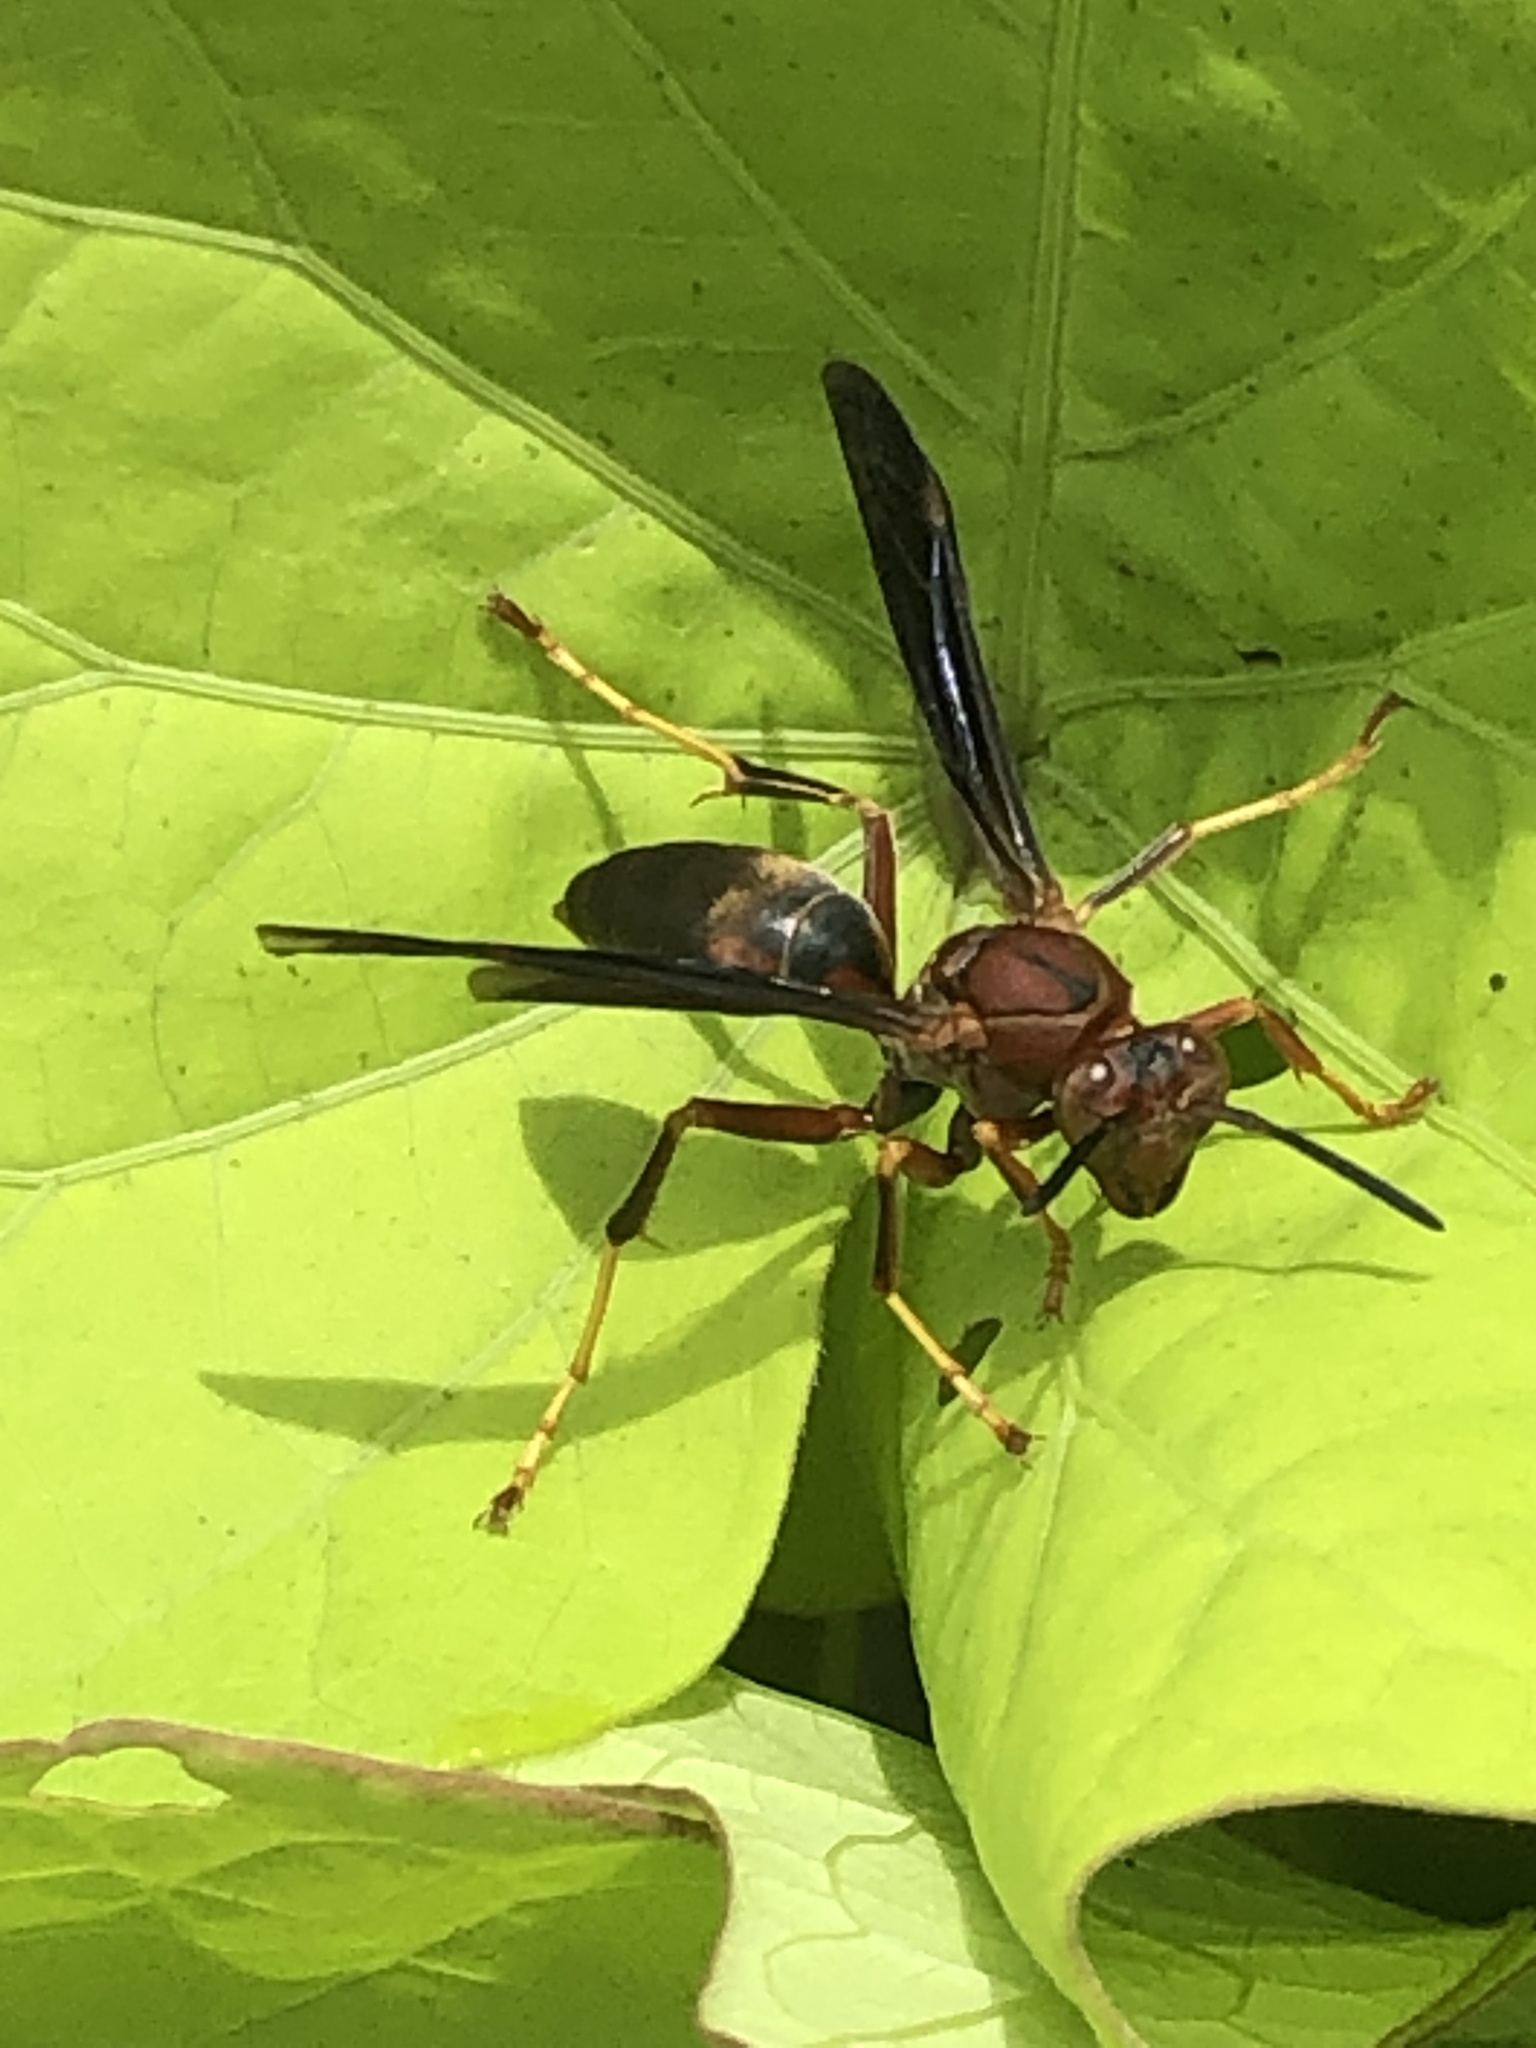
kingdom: Animalia
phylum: Arthropoda
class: Insecta
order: Hymenoptera
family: Eumenidae
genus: Polistes
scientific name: Polistes metricus
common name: Metric paper wasp
